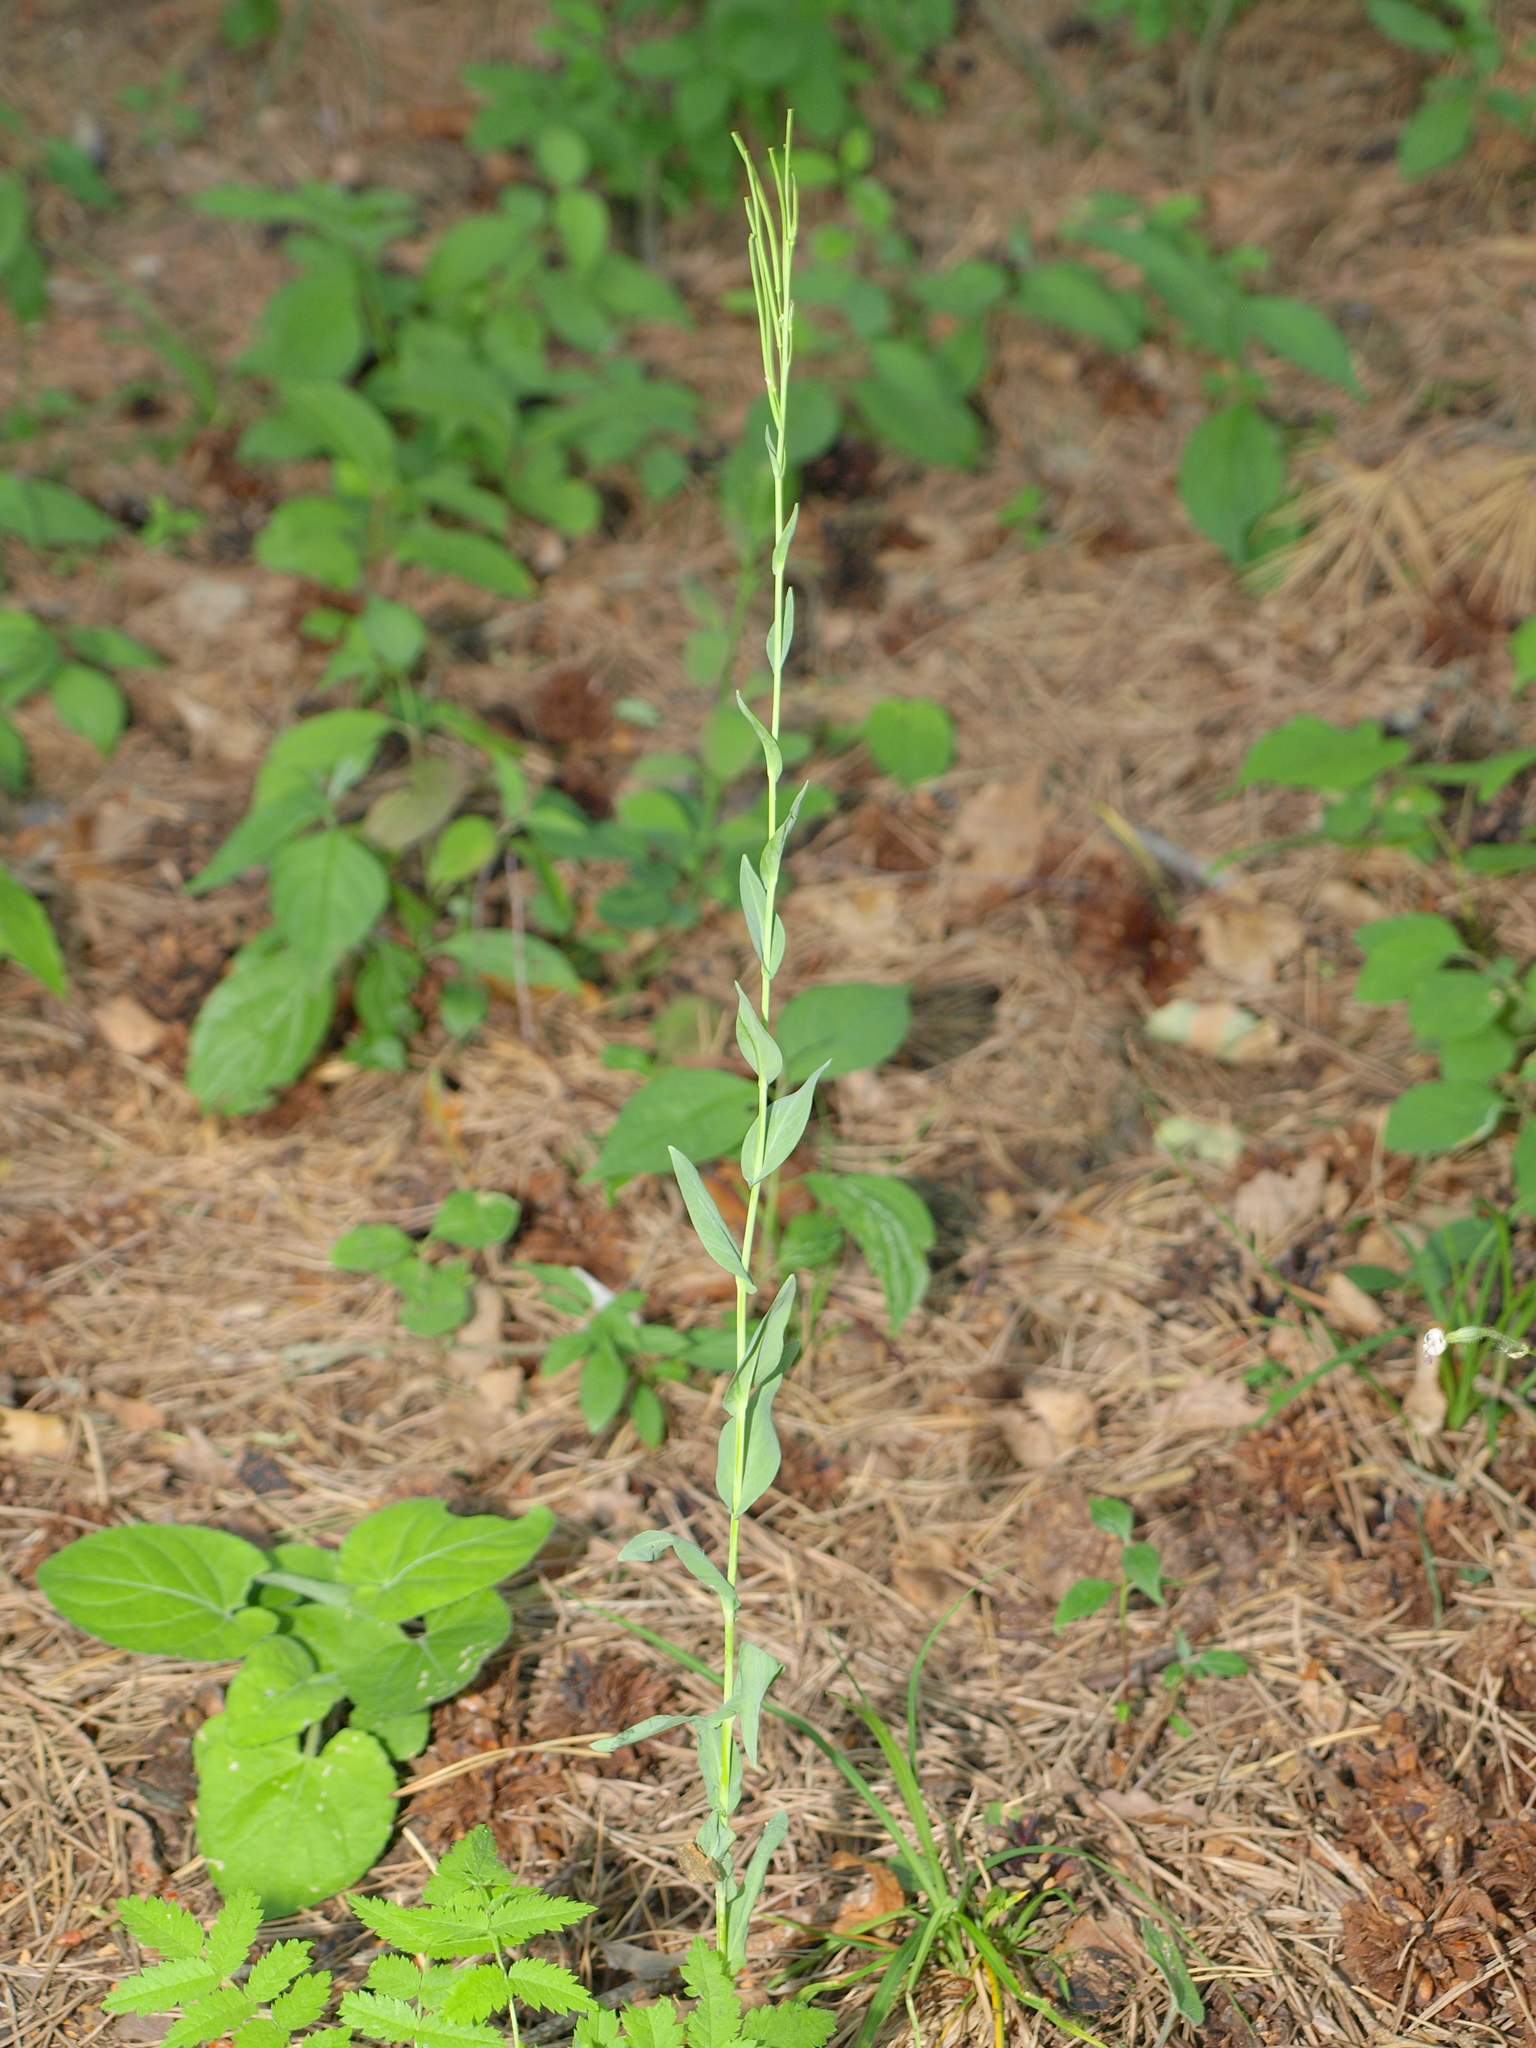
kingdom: Plantae
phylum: Tracheophyta
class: Magnoliopsida
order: Brassicales
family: Brassicaceae
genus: Turritis
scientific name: Turritis glabra
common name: Tower rockcress
